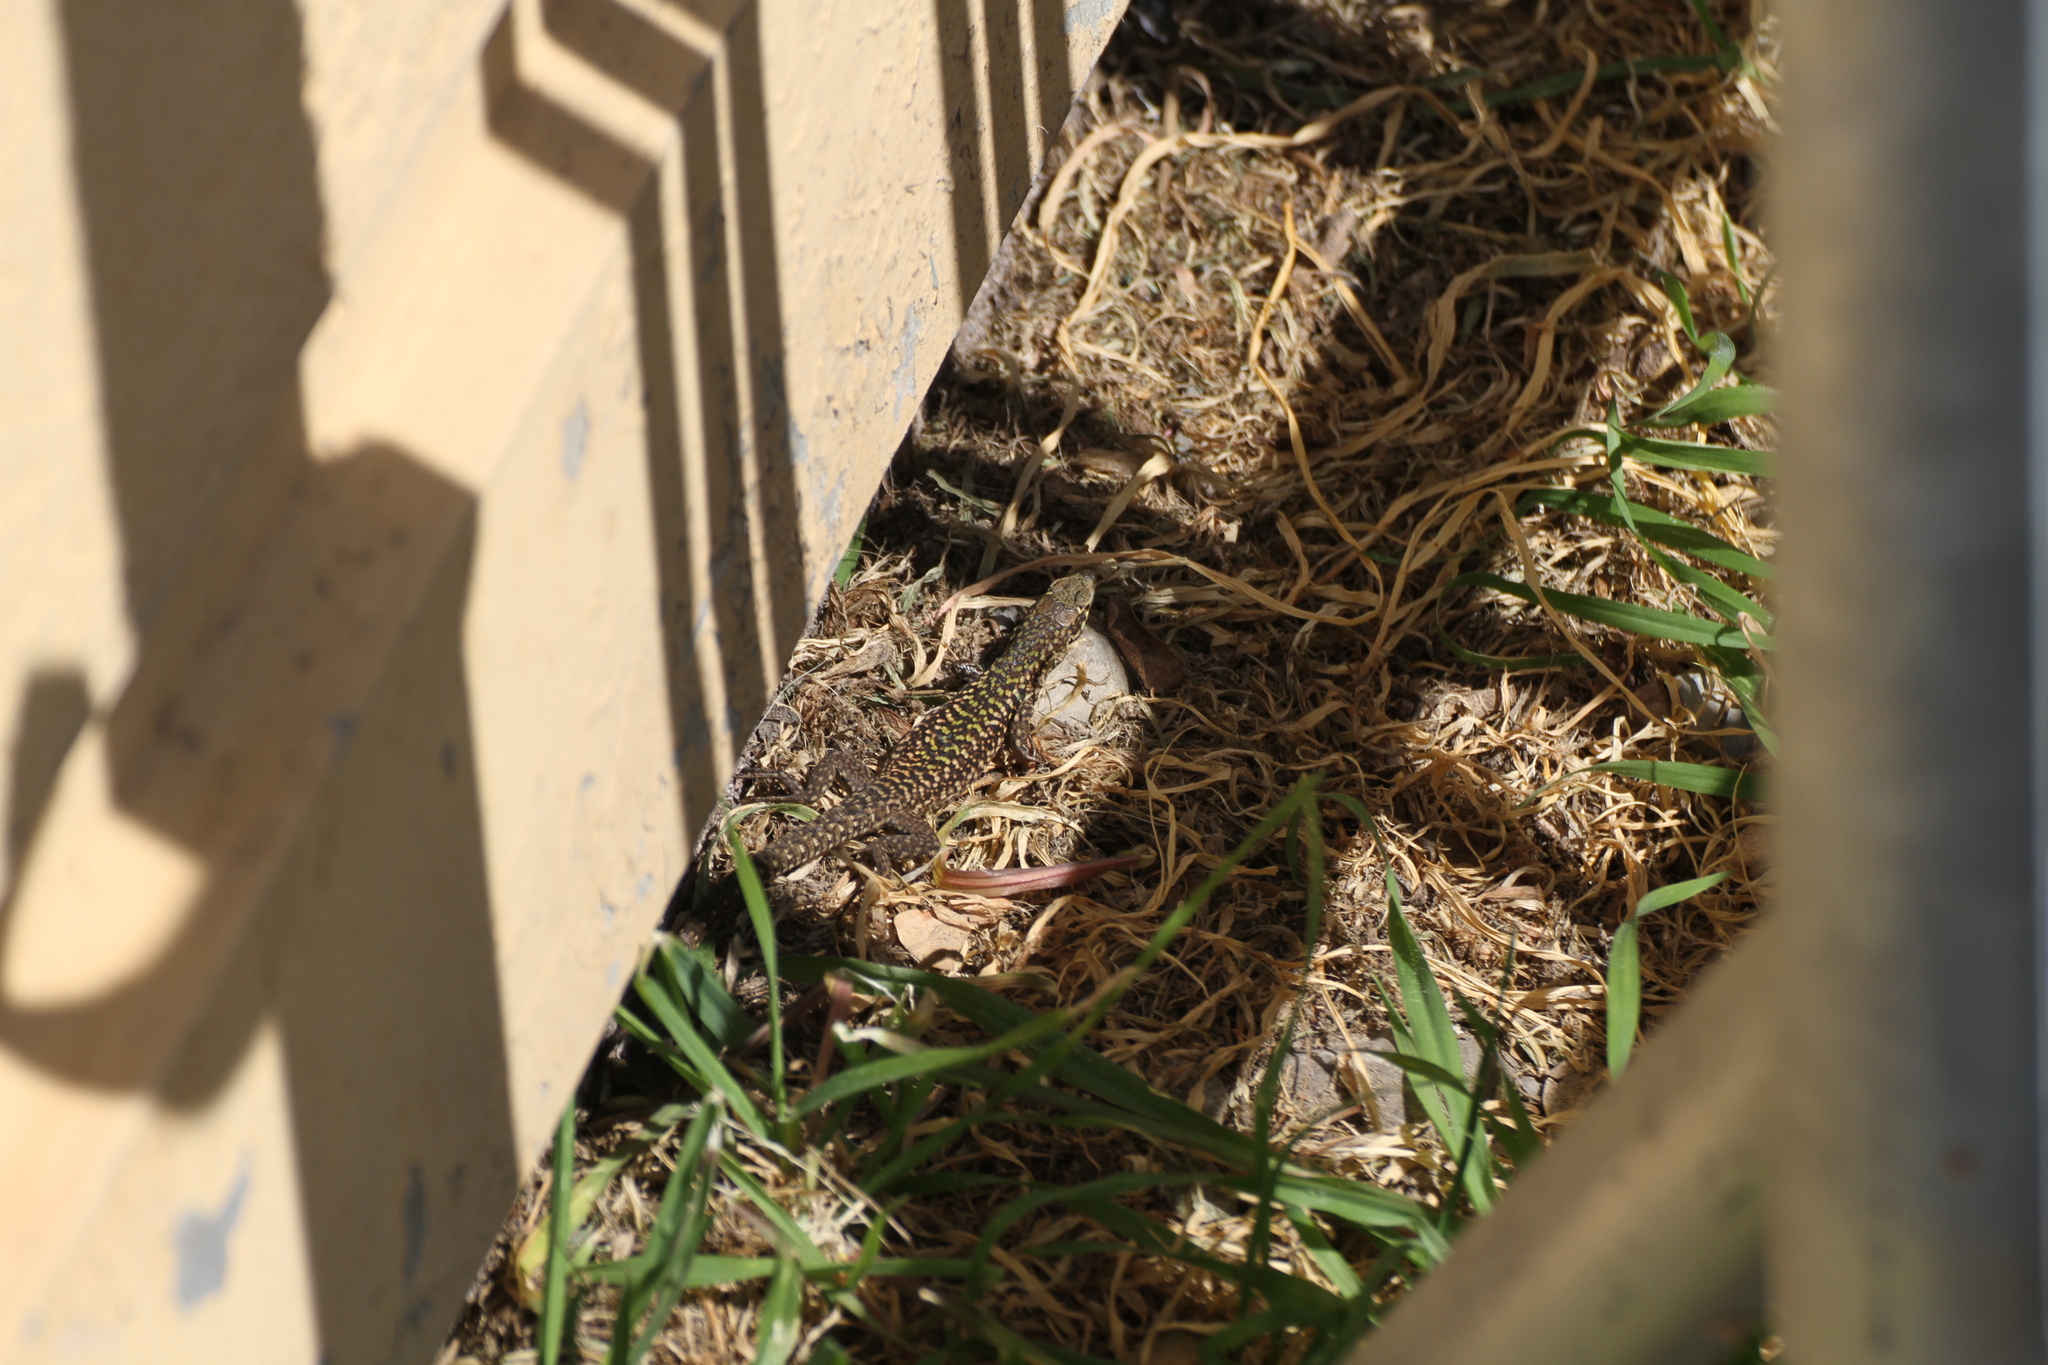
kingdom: Animalia
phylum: Chordata
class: Squamata
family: Lacertidae
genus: Podarcis
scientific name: Podarcis siculus
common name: Italian wall lizard
